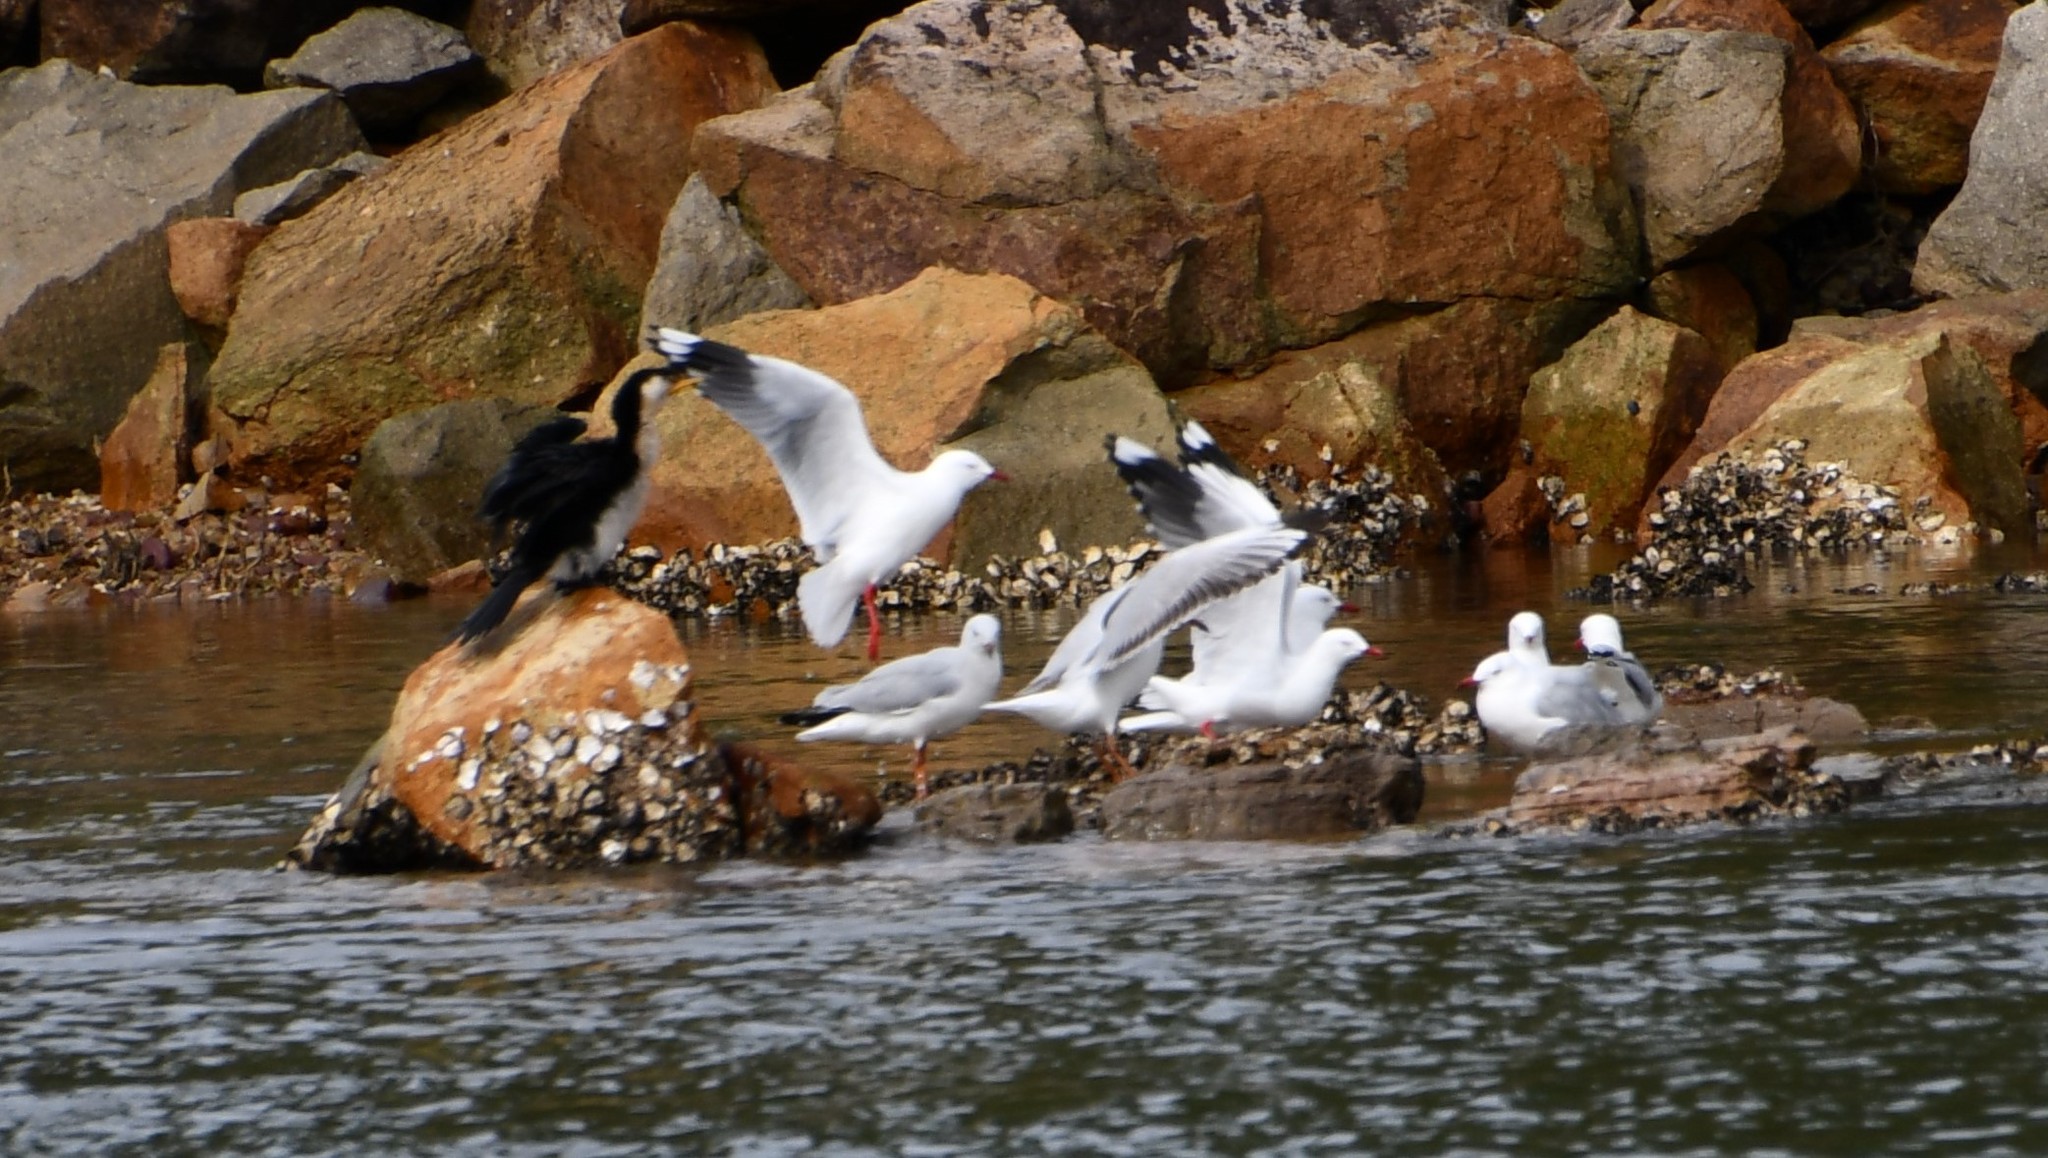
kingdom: Animalia
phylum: Chordata
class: Aves
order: Charadriiformes
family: Laridae
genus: Chroicocephalus
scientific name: Chroicocephalus novaehollandiae
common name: Silver gull
